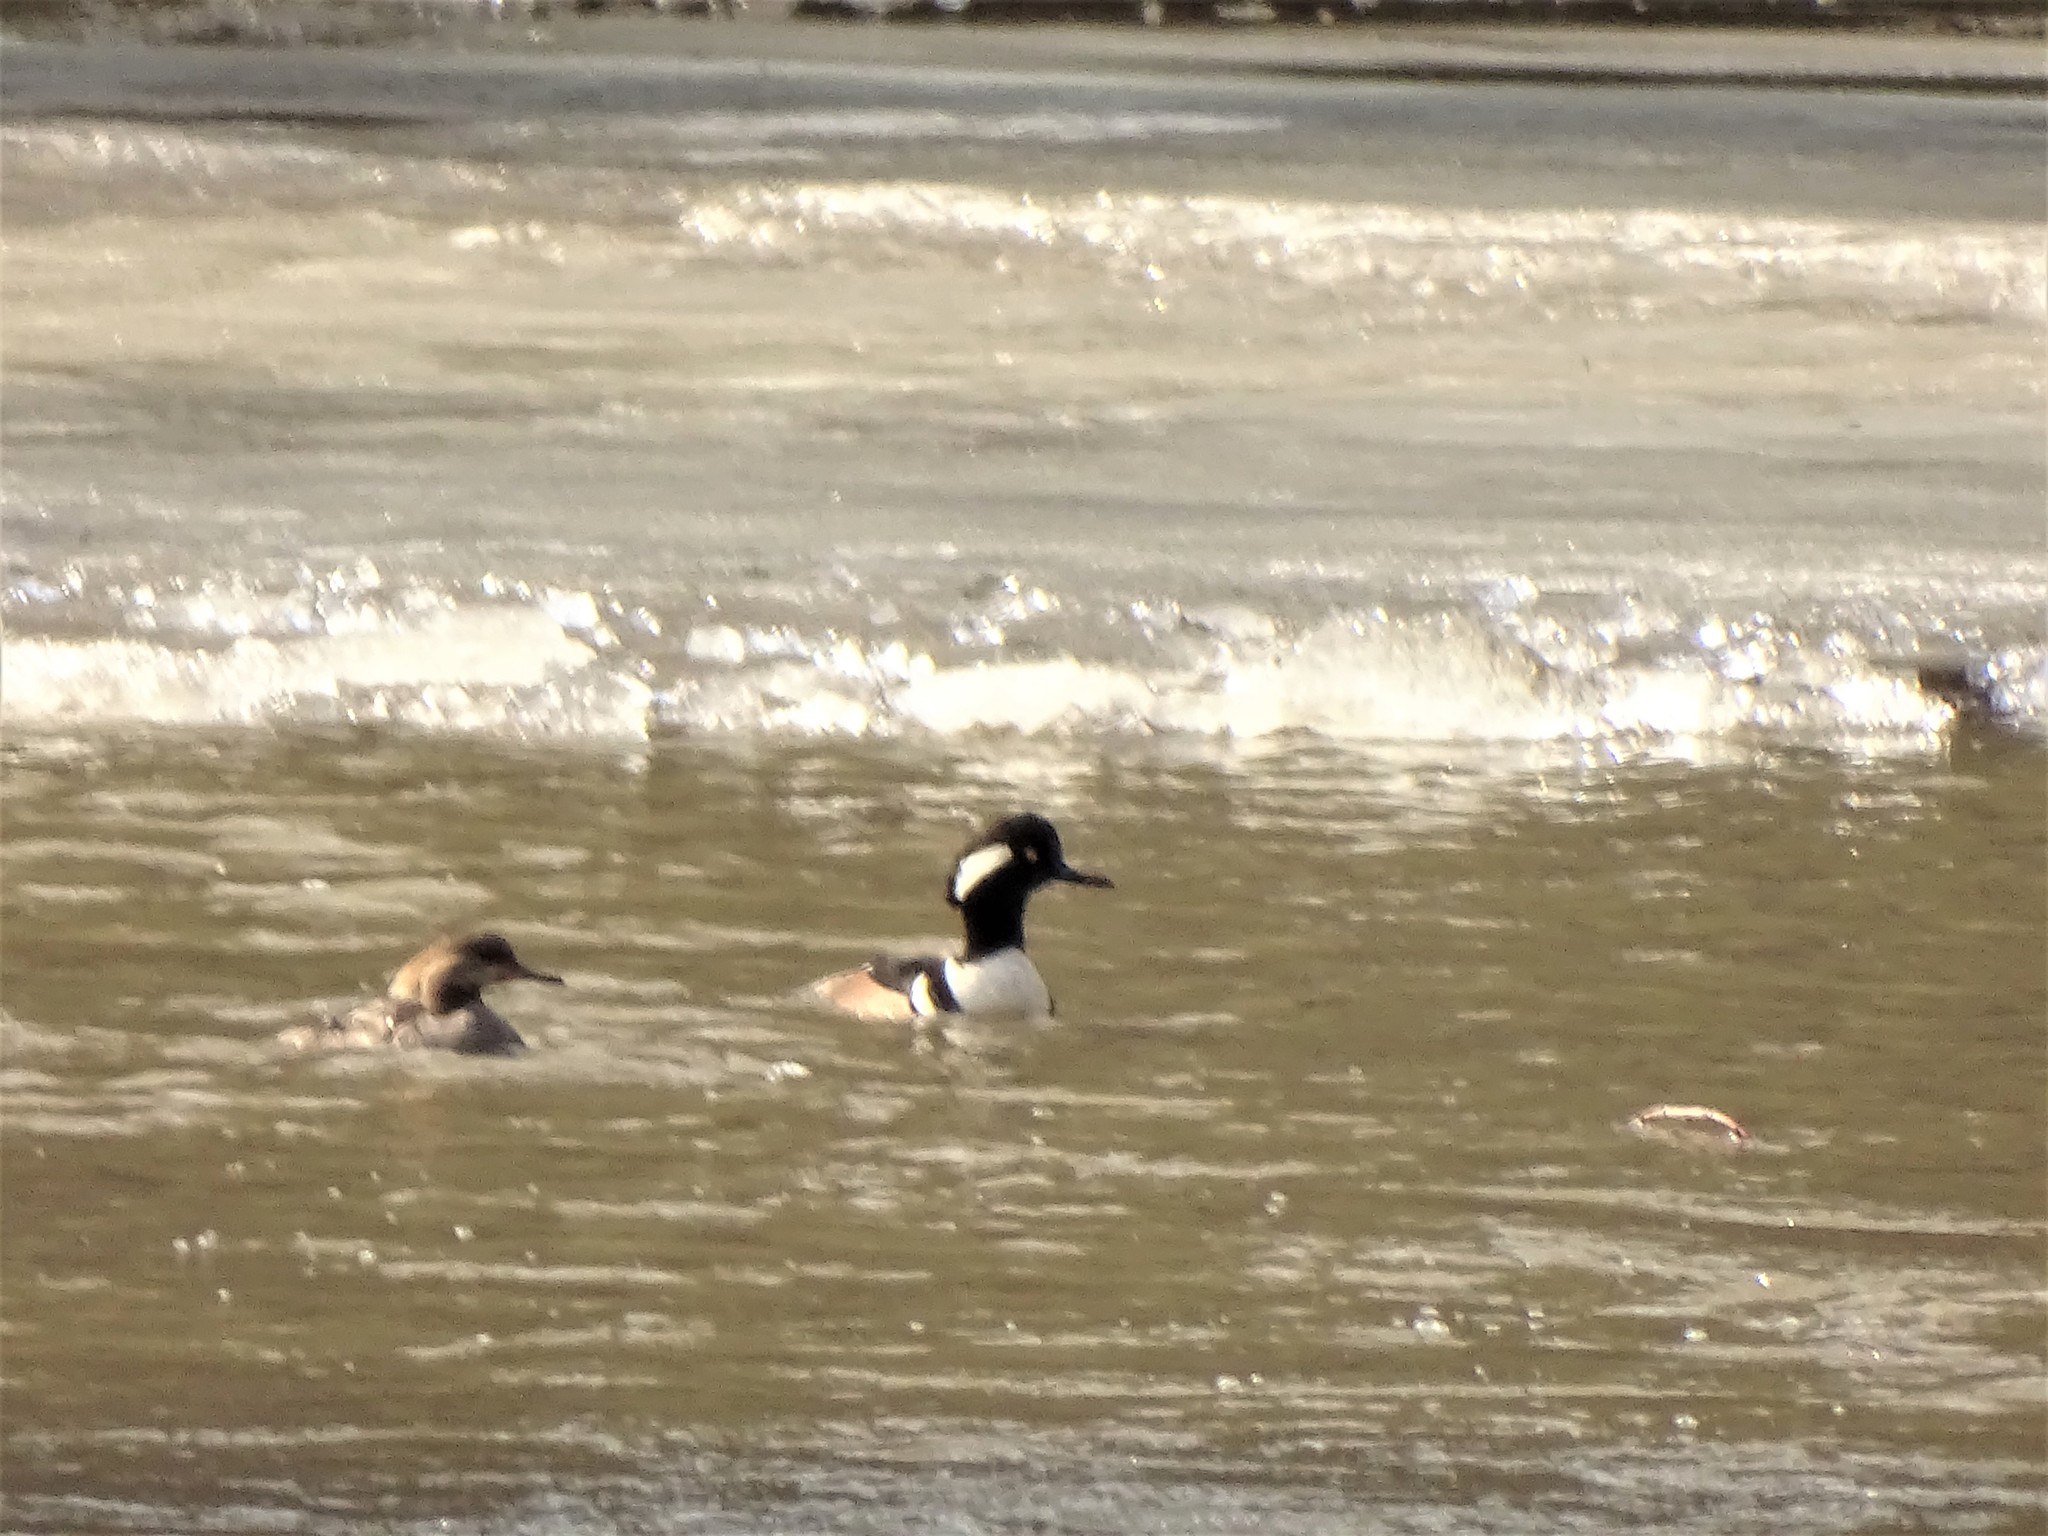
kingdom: Animalia
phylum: Chordata
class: Aves
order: Anseriformes
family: Anatidae
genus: Lophodytes
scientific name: Lophodytes cucullatus
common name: Hooded merganser
